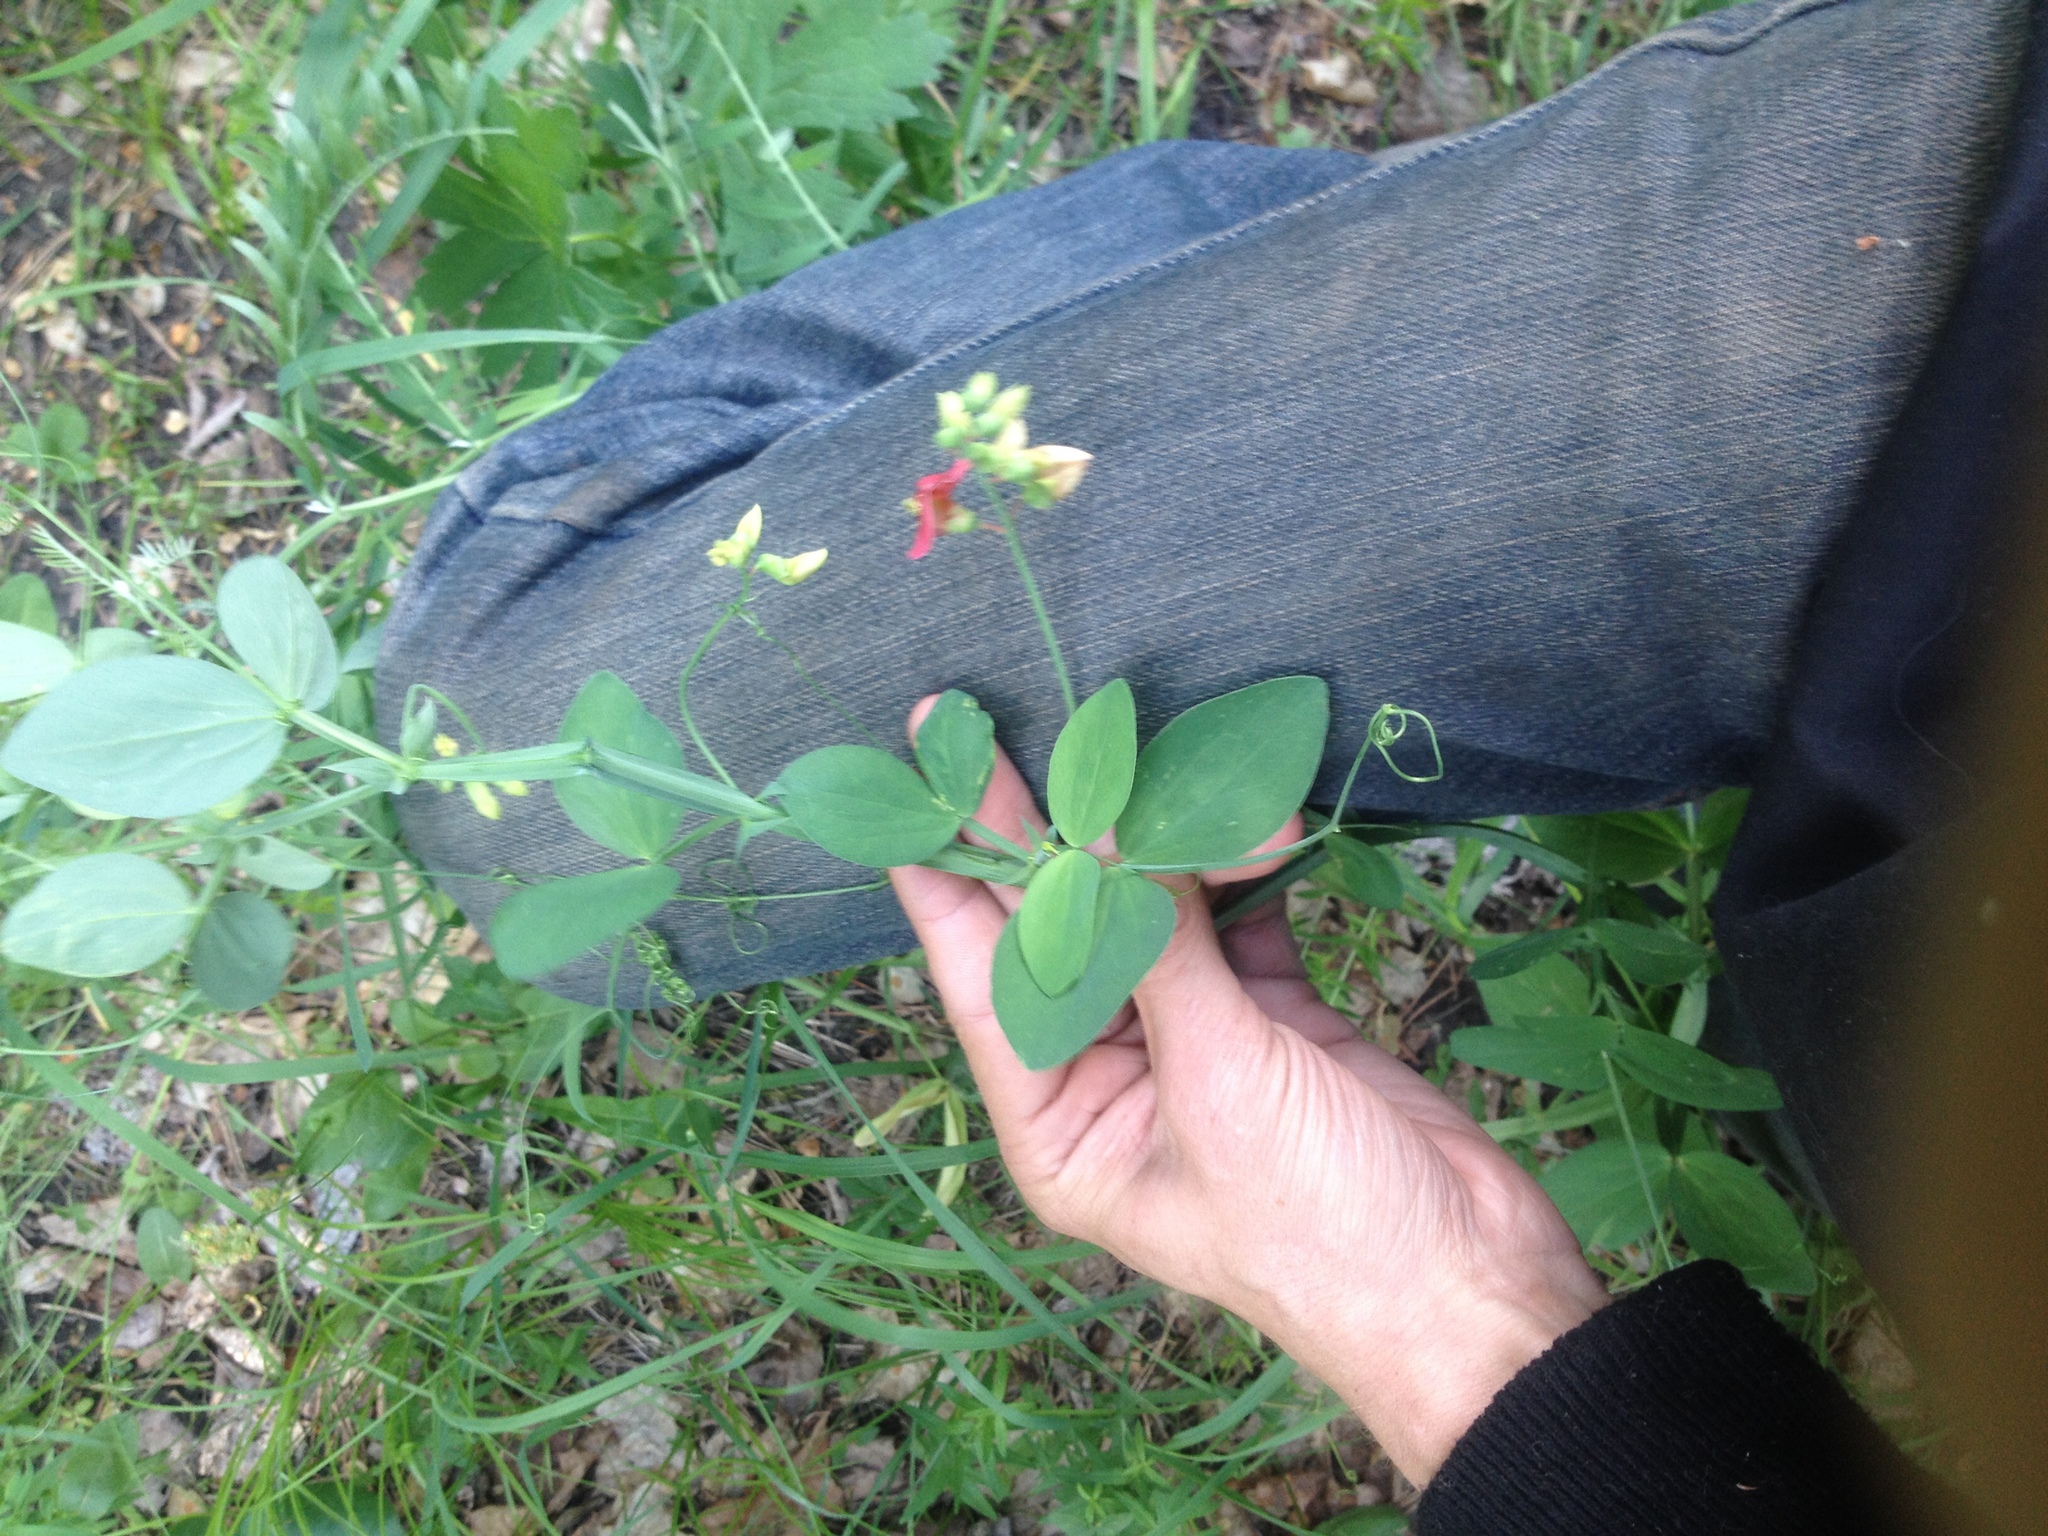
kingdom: Plantae
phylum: Tracheophyta
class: Magnoliopsida
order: Fabales
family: Fabaceae
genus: Lathyrus
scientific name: Lathyrus rotundifolius
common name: Round-leaf vetchling
